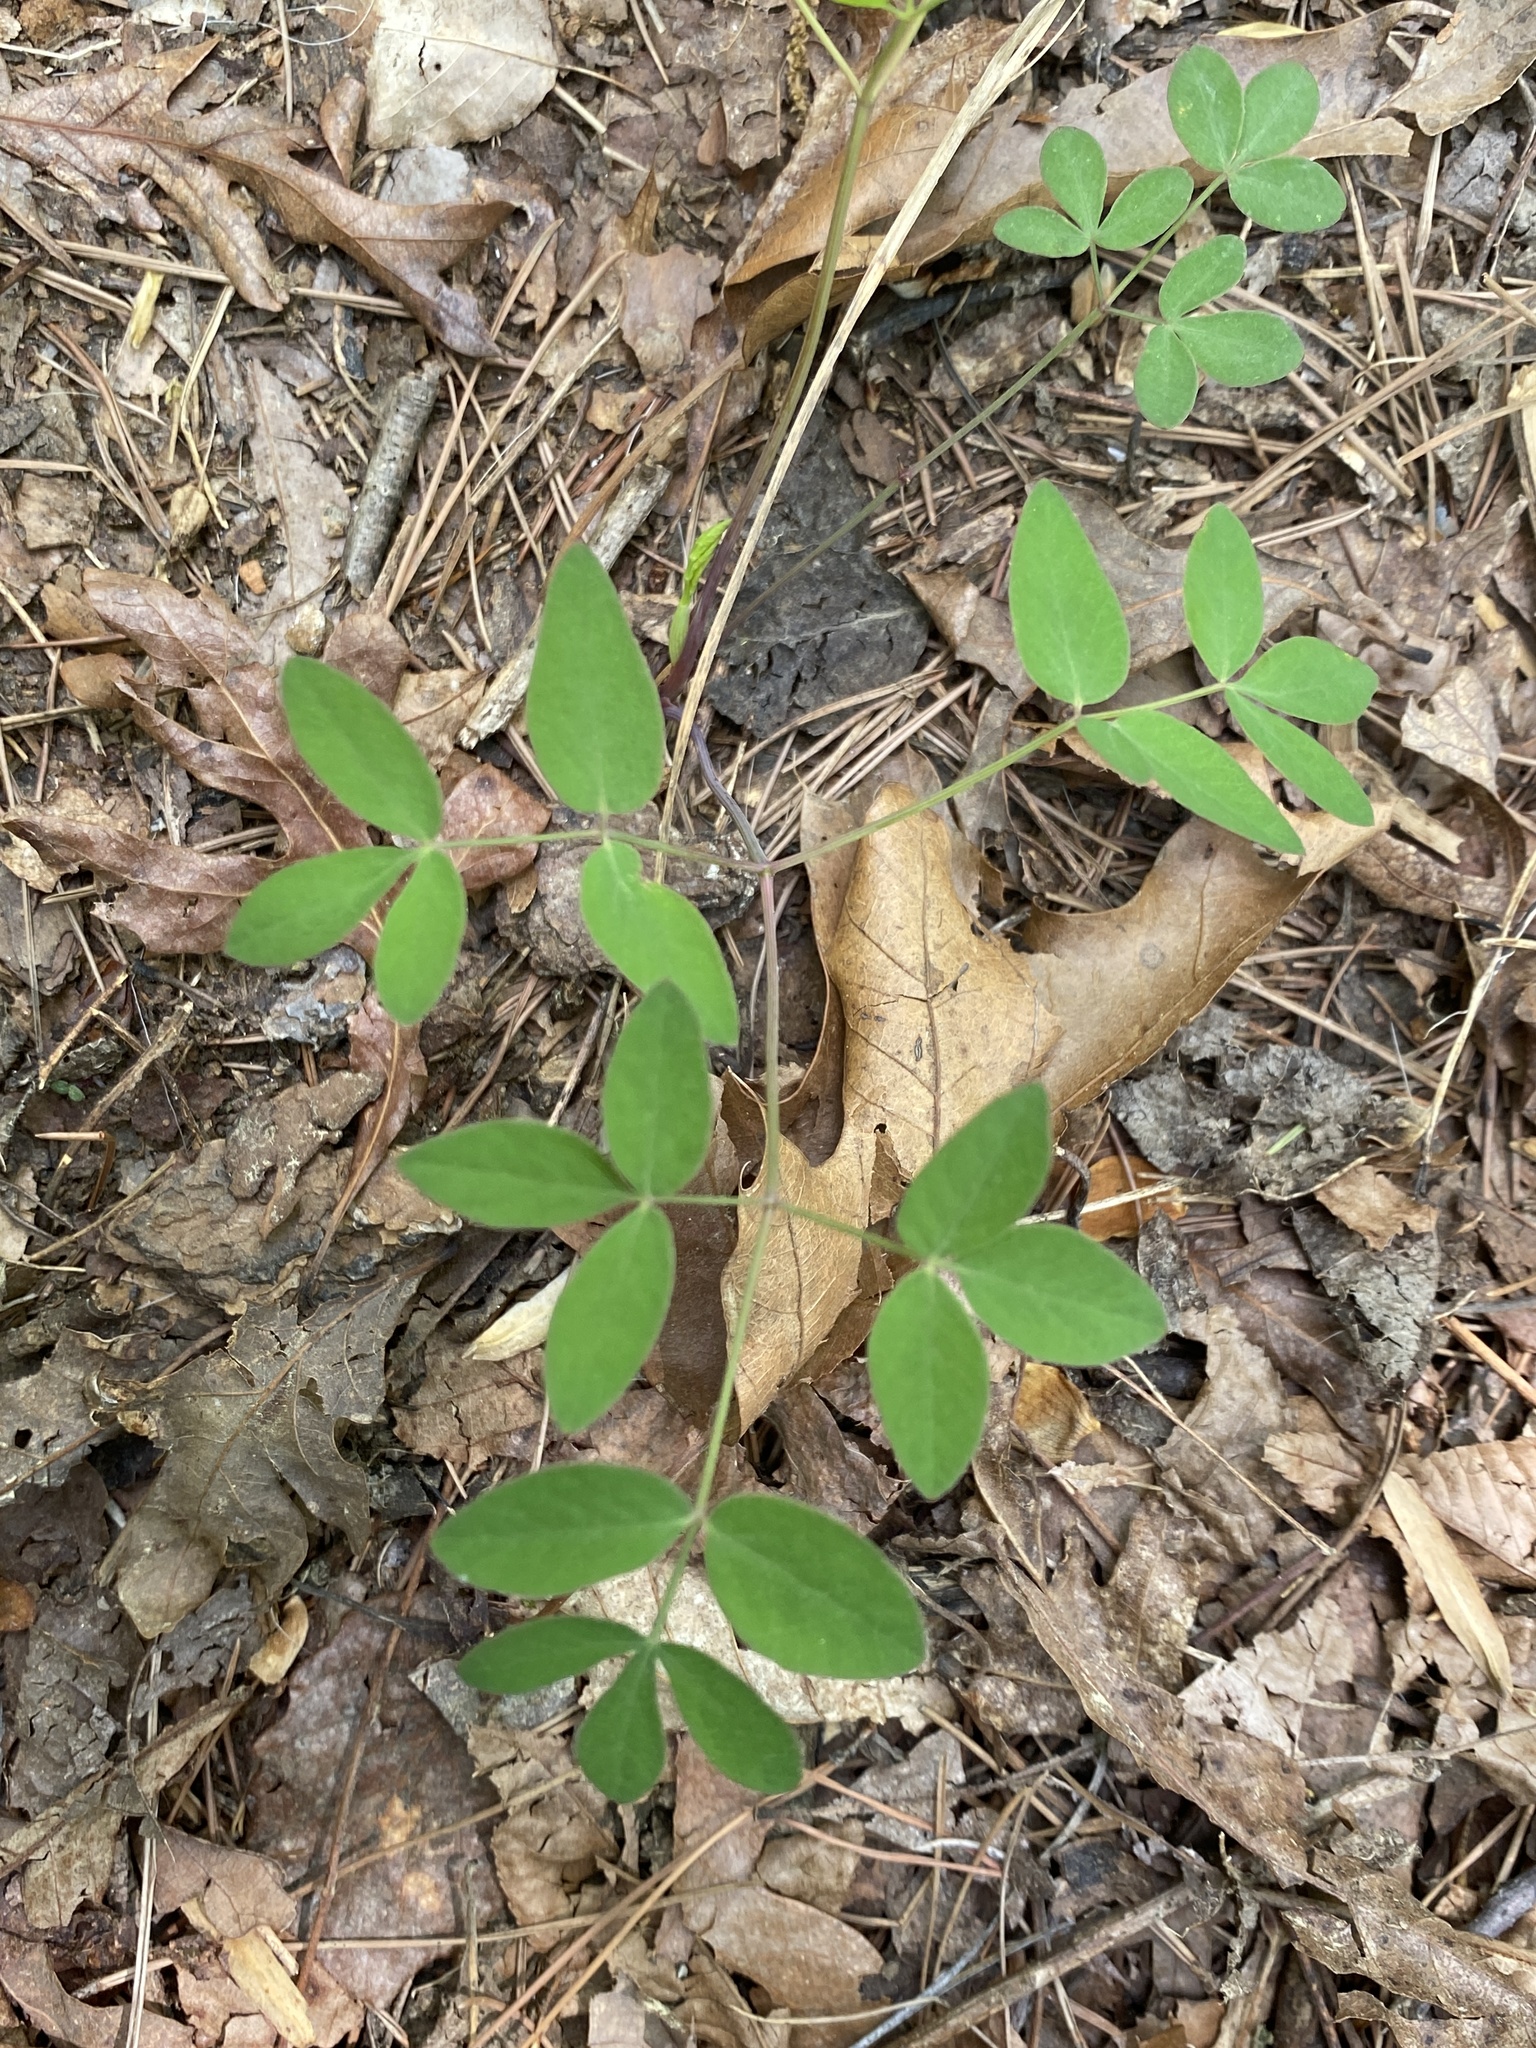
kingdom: Plantae
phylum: Tracheophyta
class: Magnoliopsida
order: Apiales
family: Apiaceae
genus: Taenidia
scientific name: Taenidia integerrima
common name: Golden alexander
